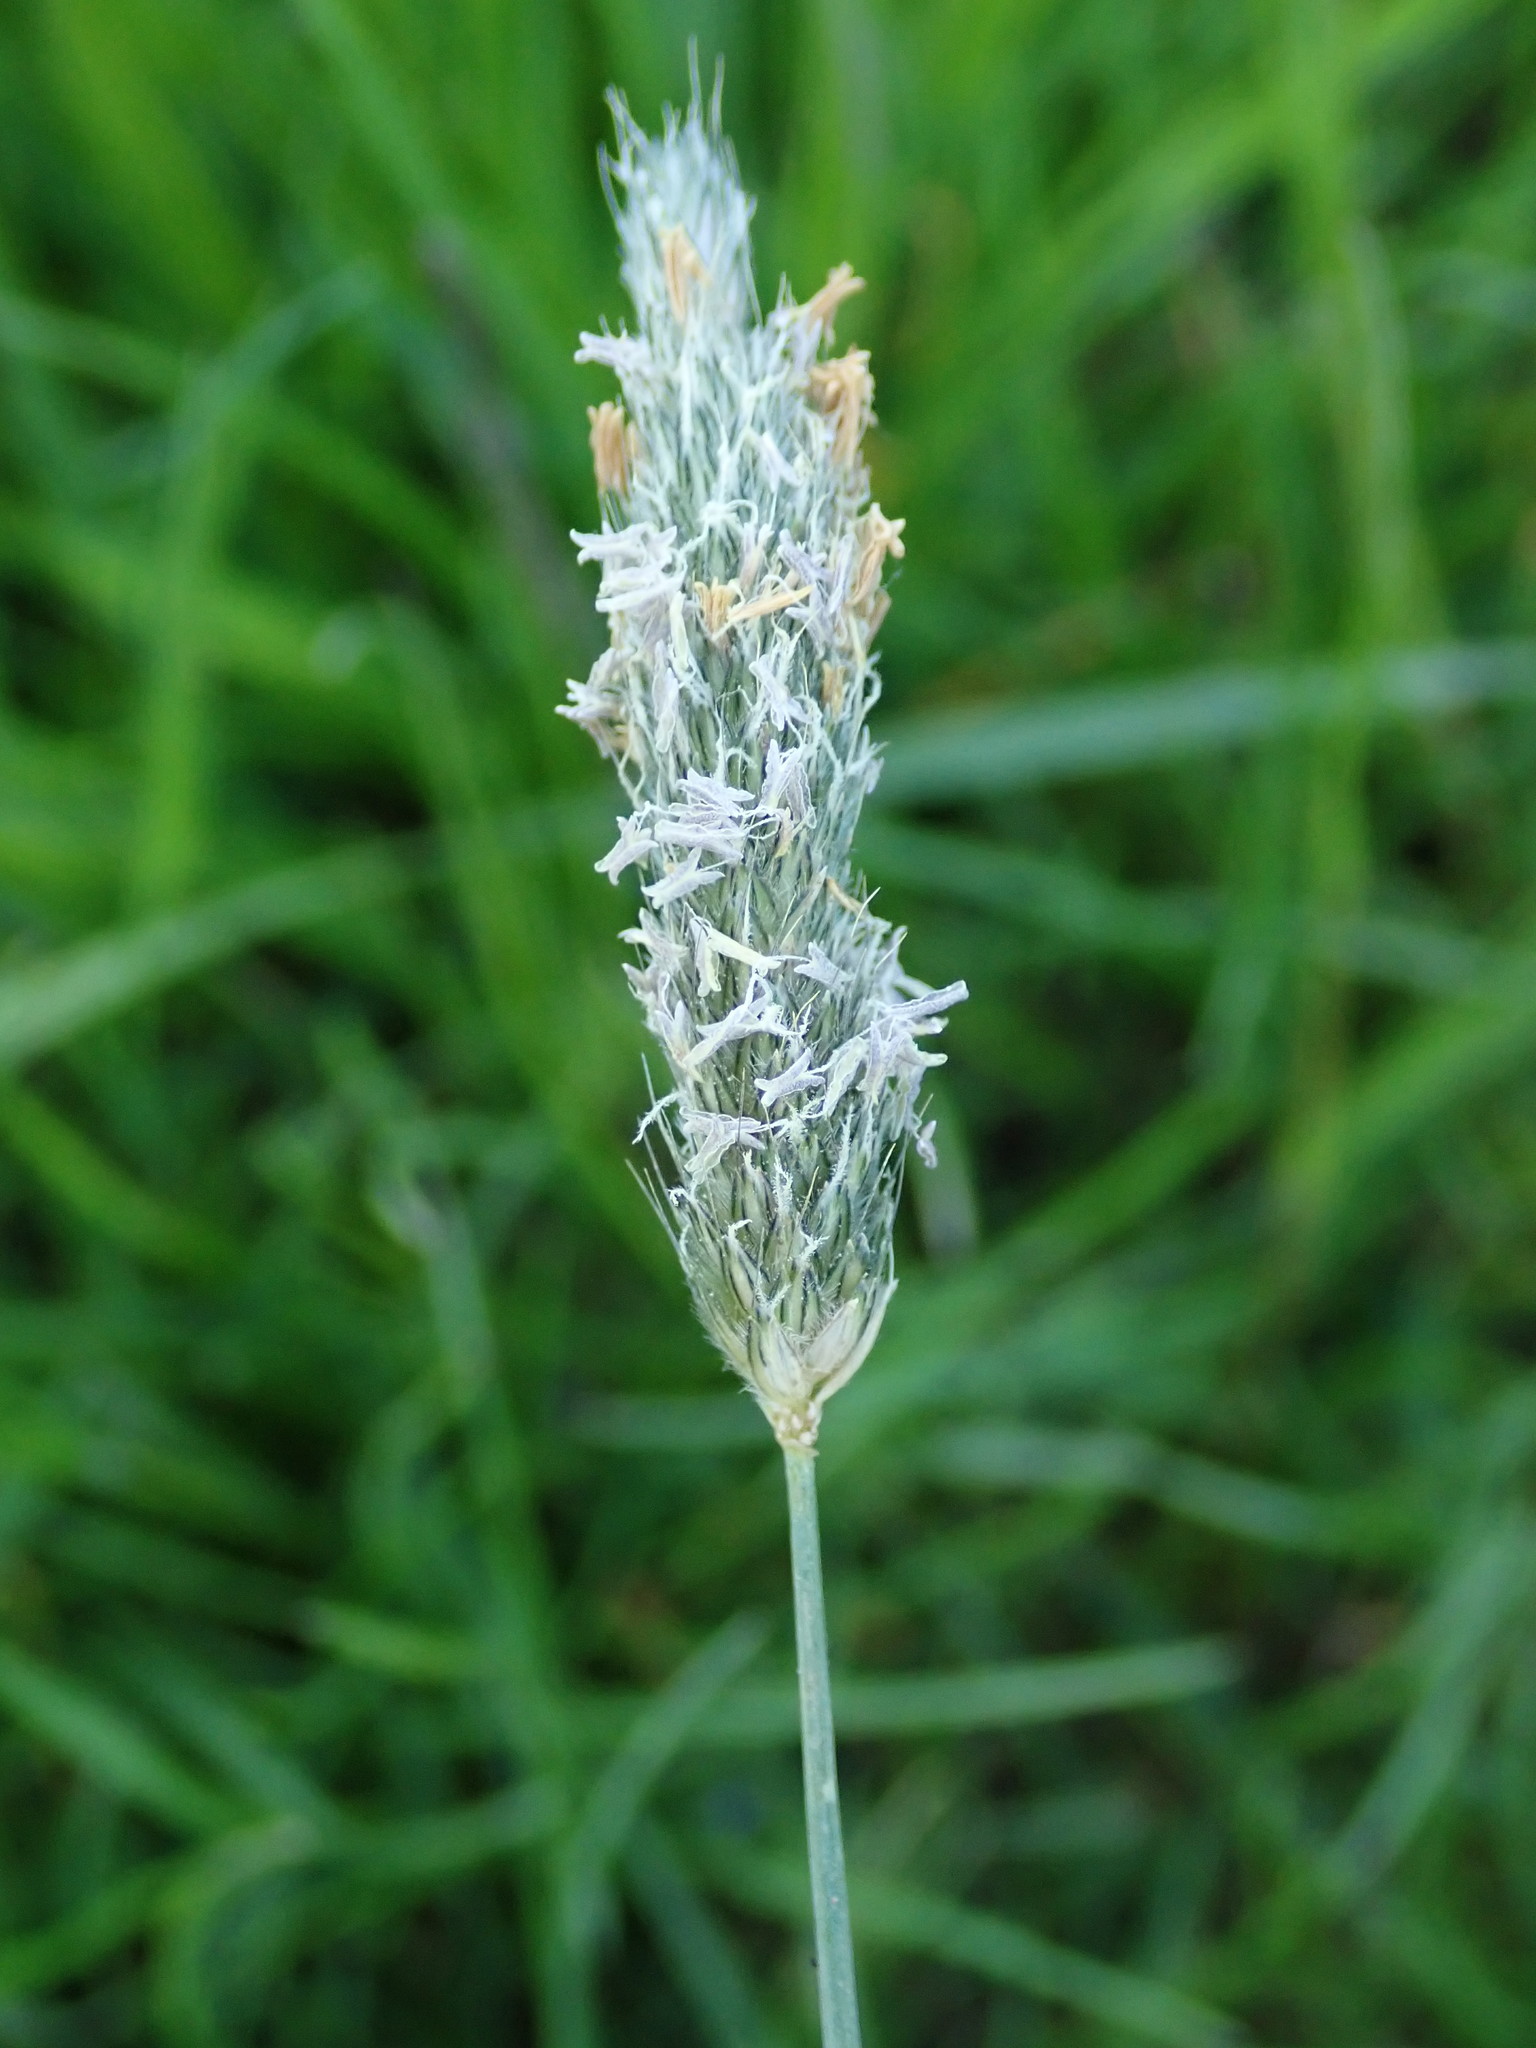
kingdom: Plantae
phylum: Tracheophyta
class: Liliopsida
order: Poales
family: Poaceae
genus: Alopecurus
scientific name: Alopecurus pratensis
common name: Meadow foxtail
